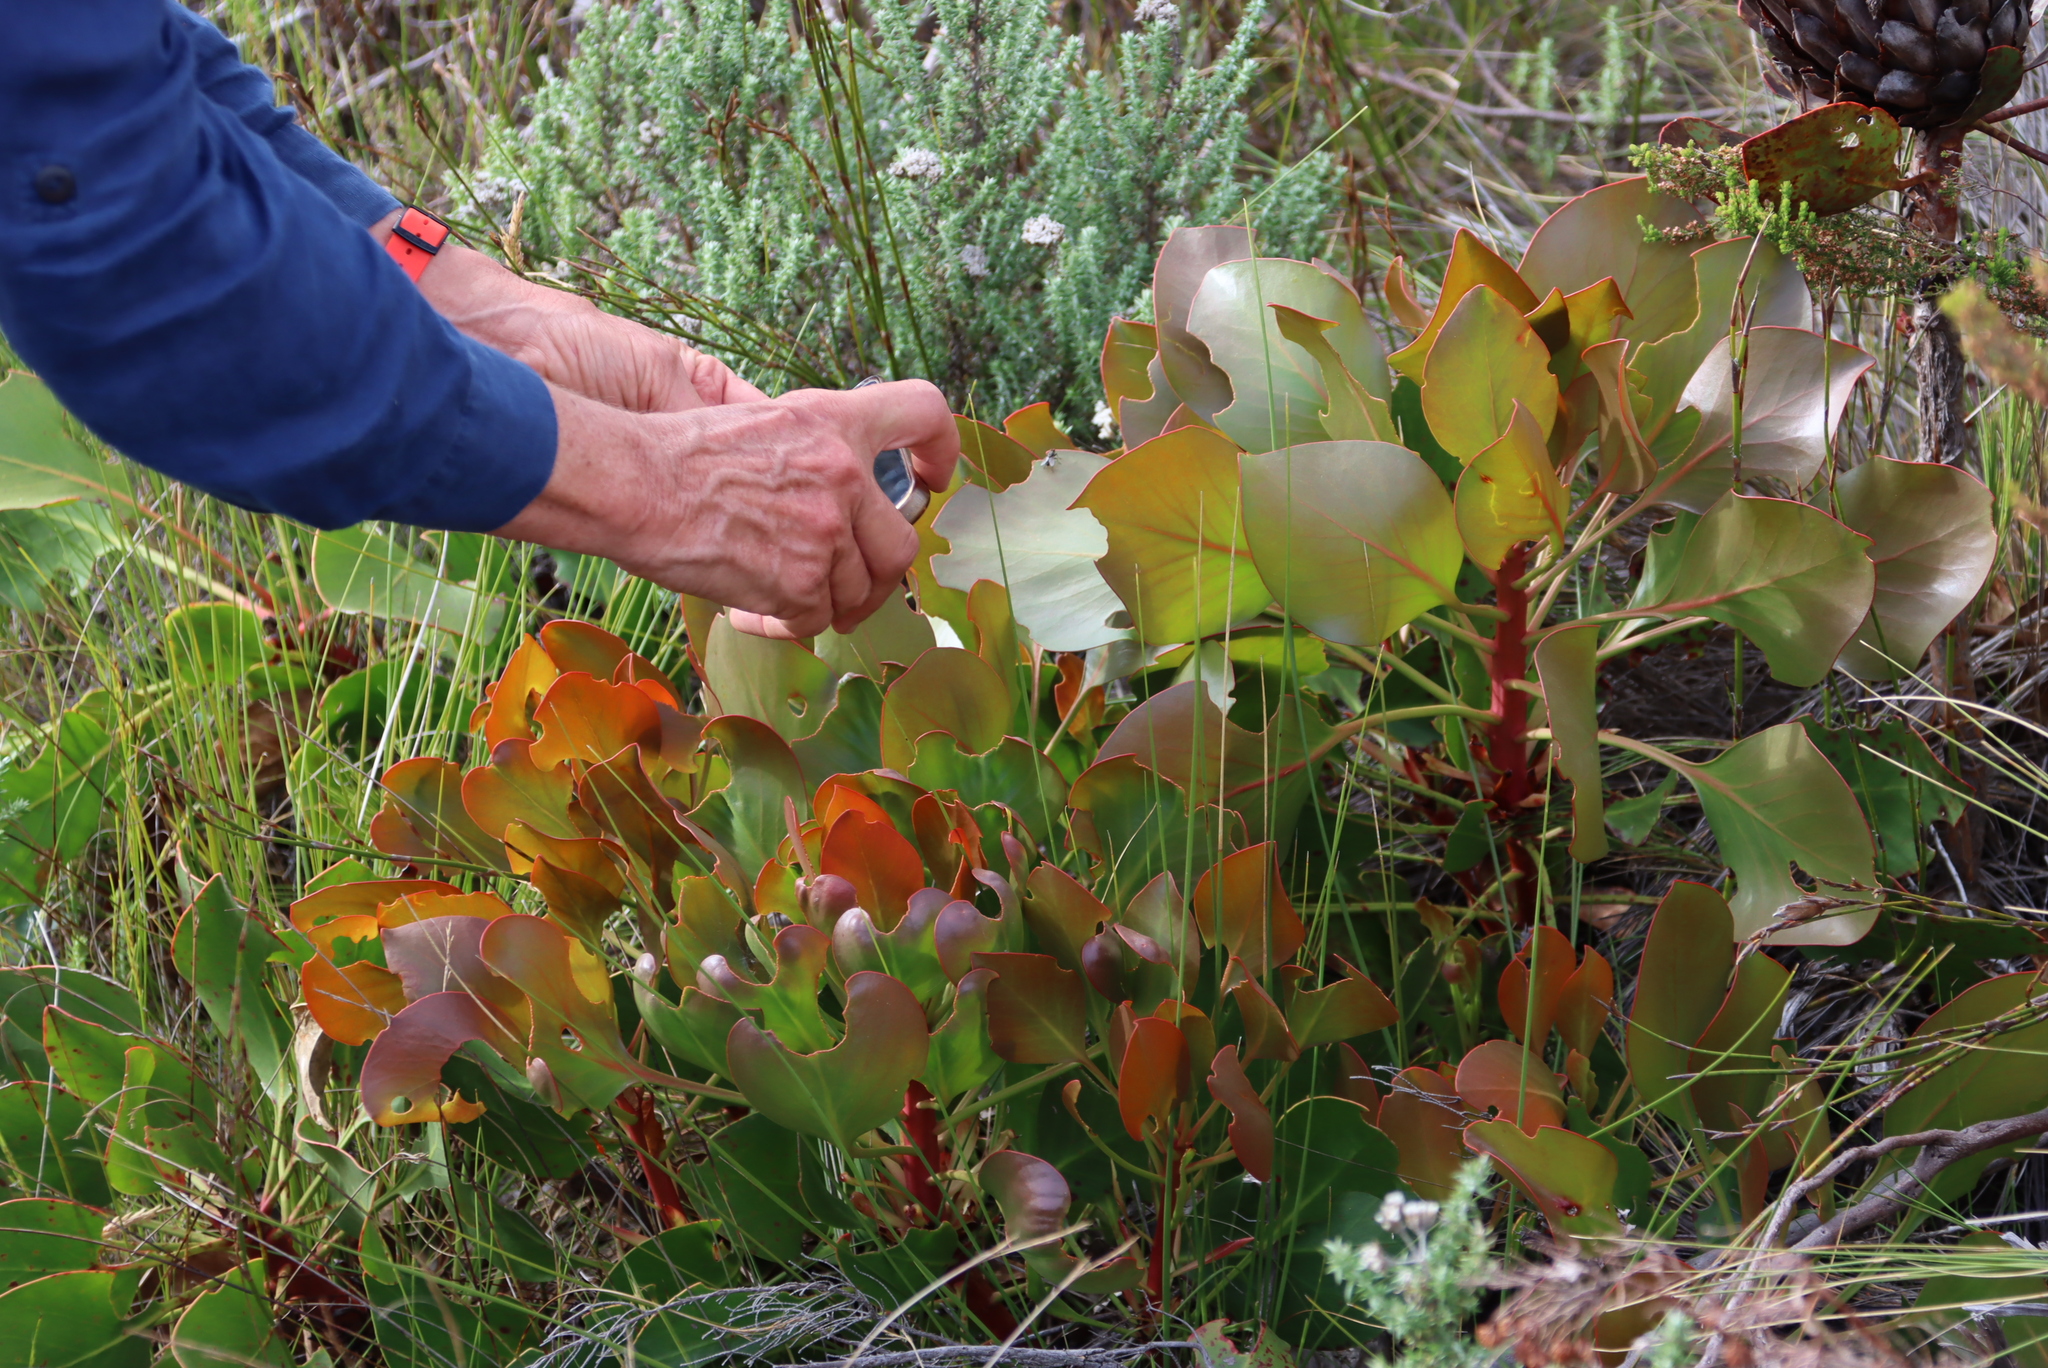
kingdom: Plantae
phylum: Tracheophyta
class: Magnoliopsida
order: Proteales
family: Proteaceae
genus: Protea
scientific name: Protea cynaroides
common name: King protea
